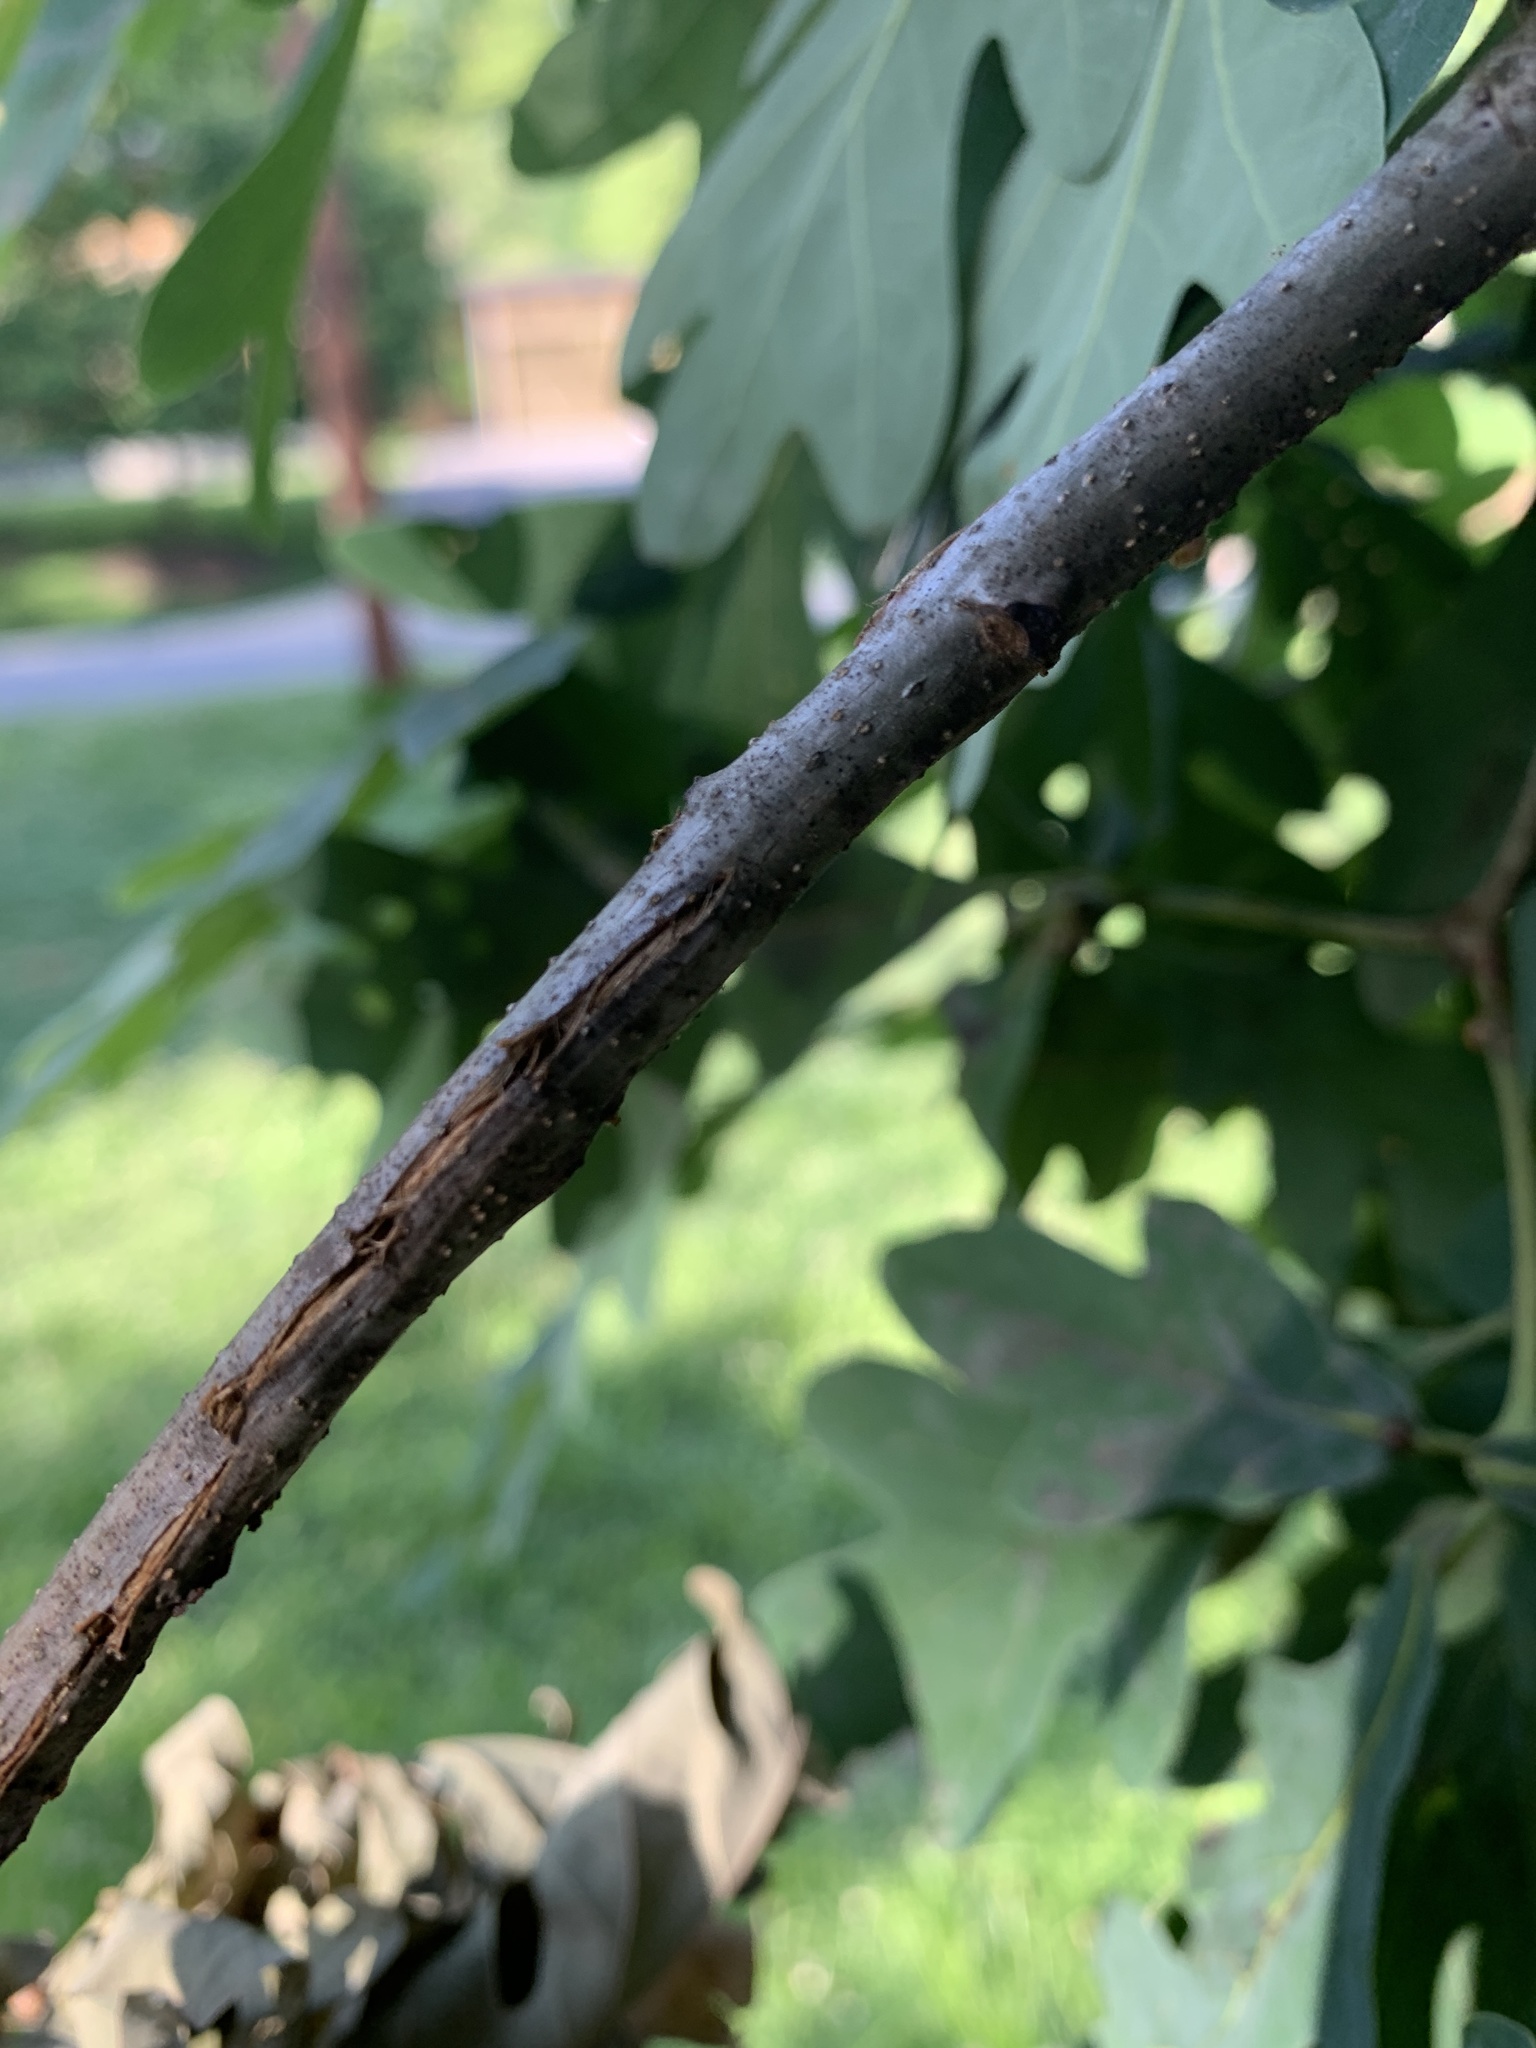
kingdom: Animalia
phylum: Arthropoda
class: Insecta
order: Hemiptera
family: Cicadidae
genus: Magicicada
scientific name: Magicicada
